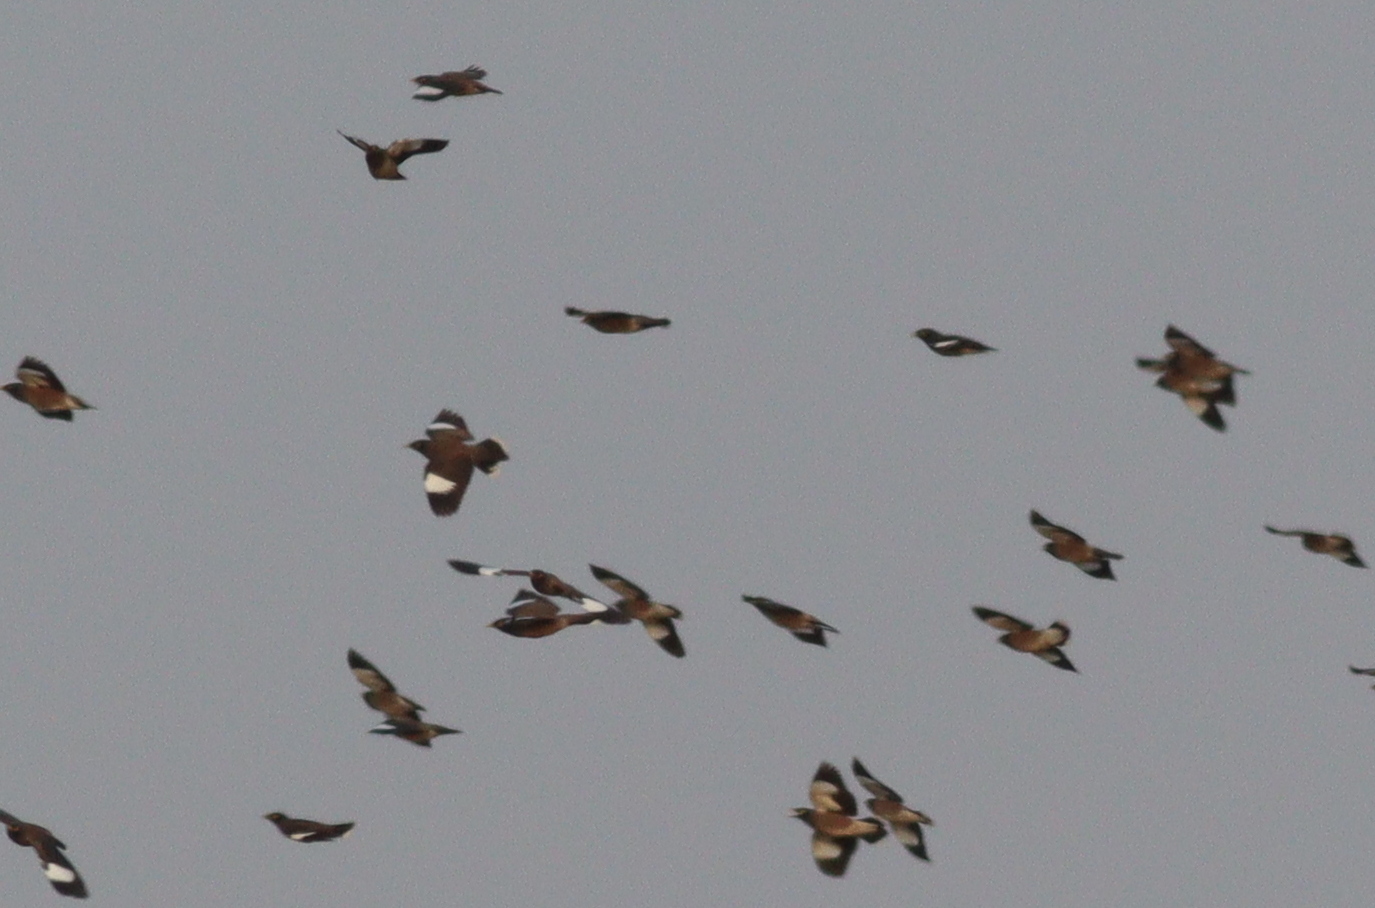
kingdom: Animalia
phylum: Chordata
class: Aves
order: Passeriformes
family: Sturnidae
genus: Acridotheres
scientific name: Acridotheres tristis
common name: Common myna
